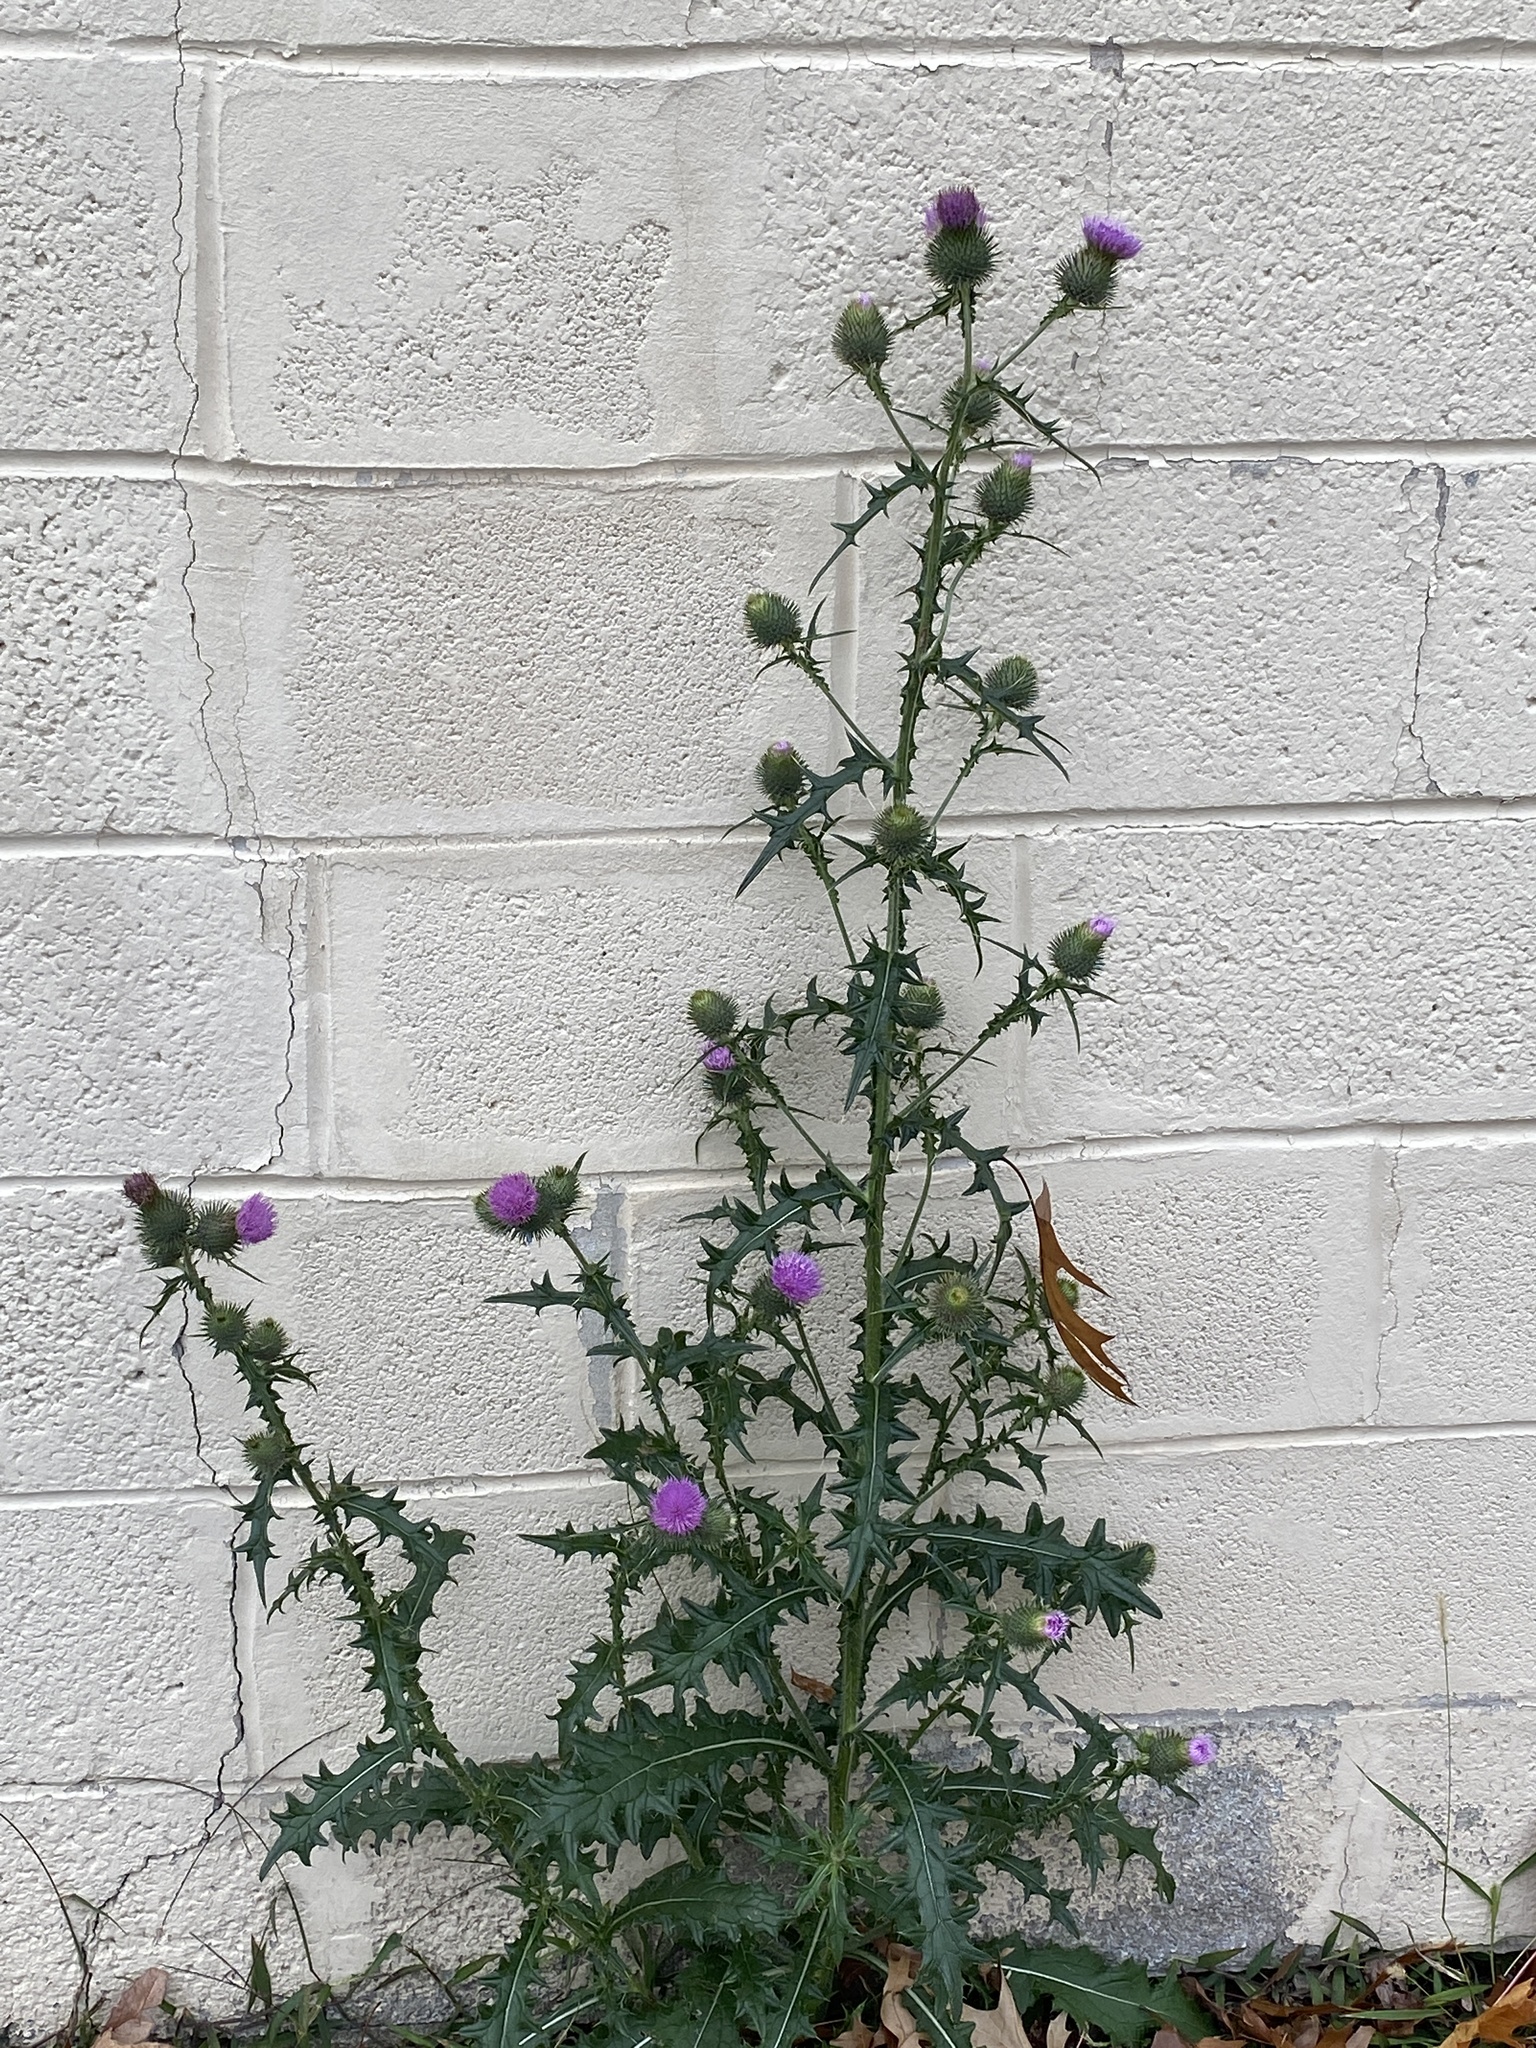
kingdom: Plantae
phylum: Tracheophyta
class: Magnoliopsida
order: Asterales
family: Asteraceae
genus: Cirsium
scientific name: Cirsium vulgare
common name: Bull thistle
